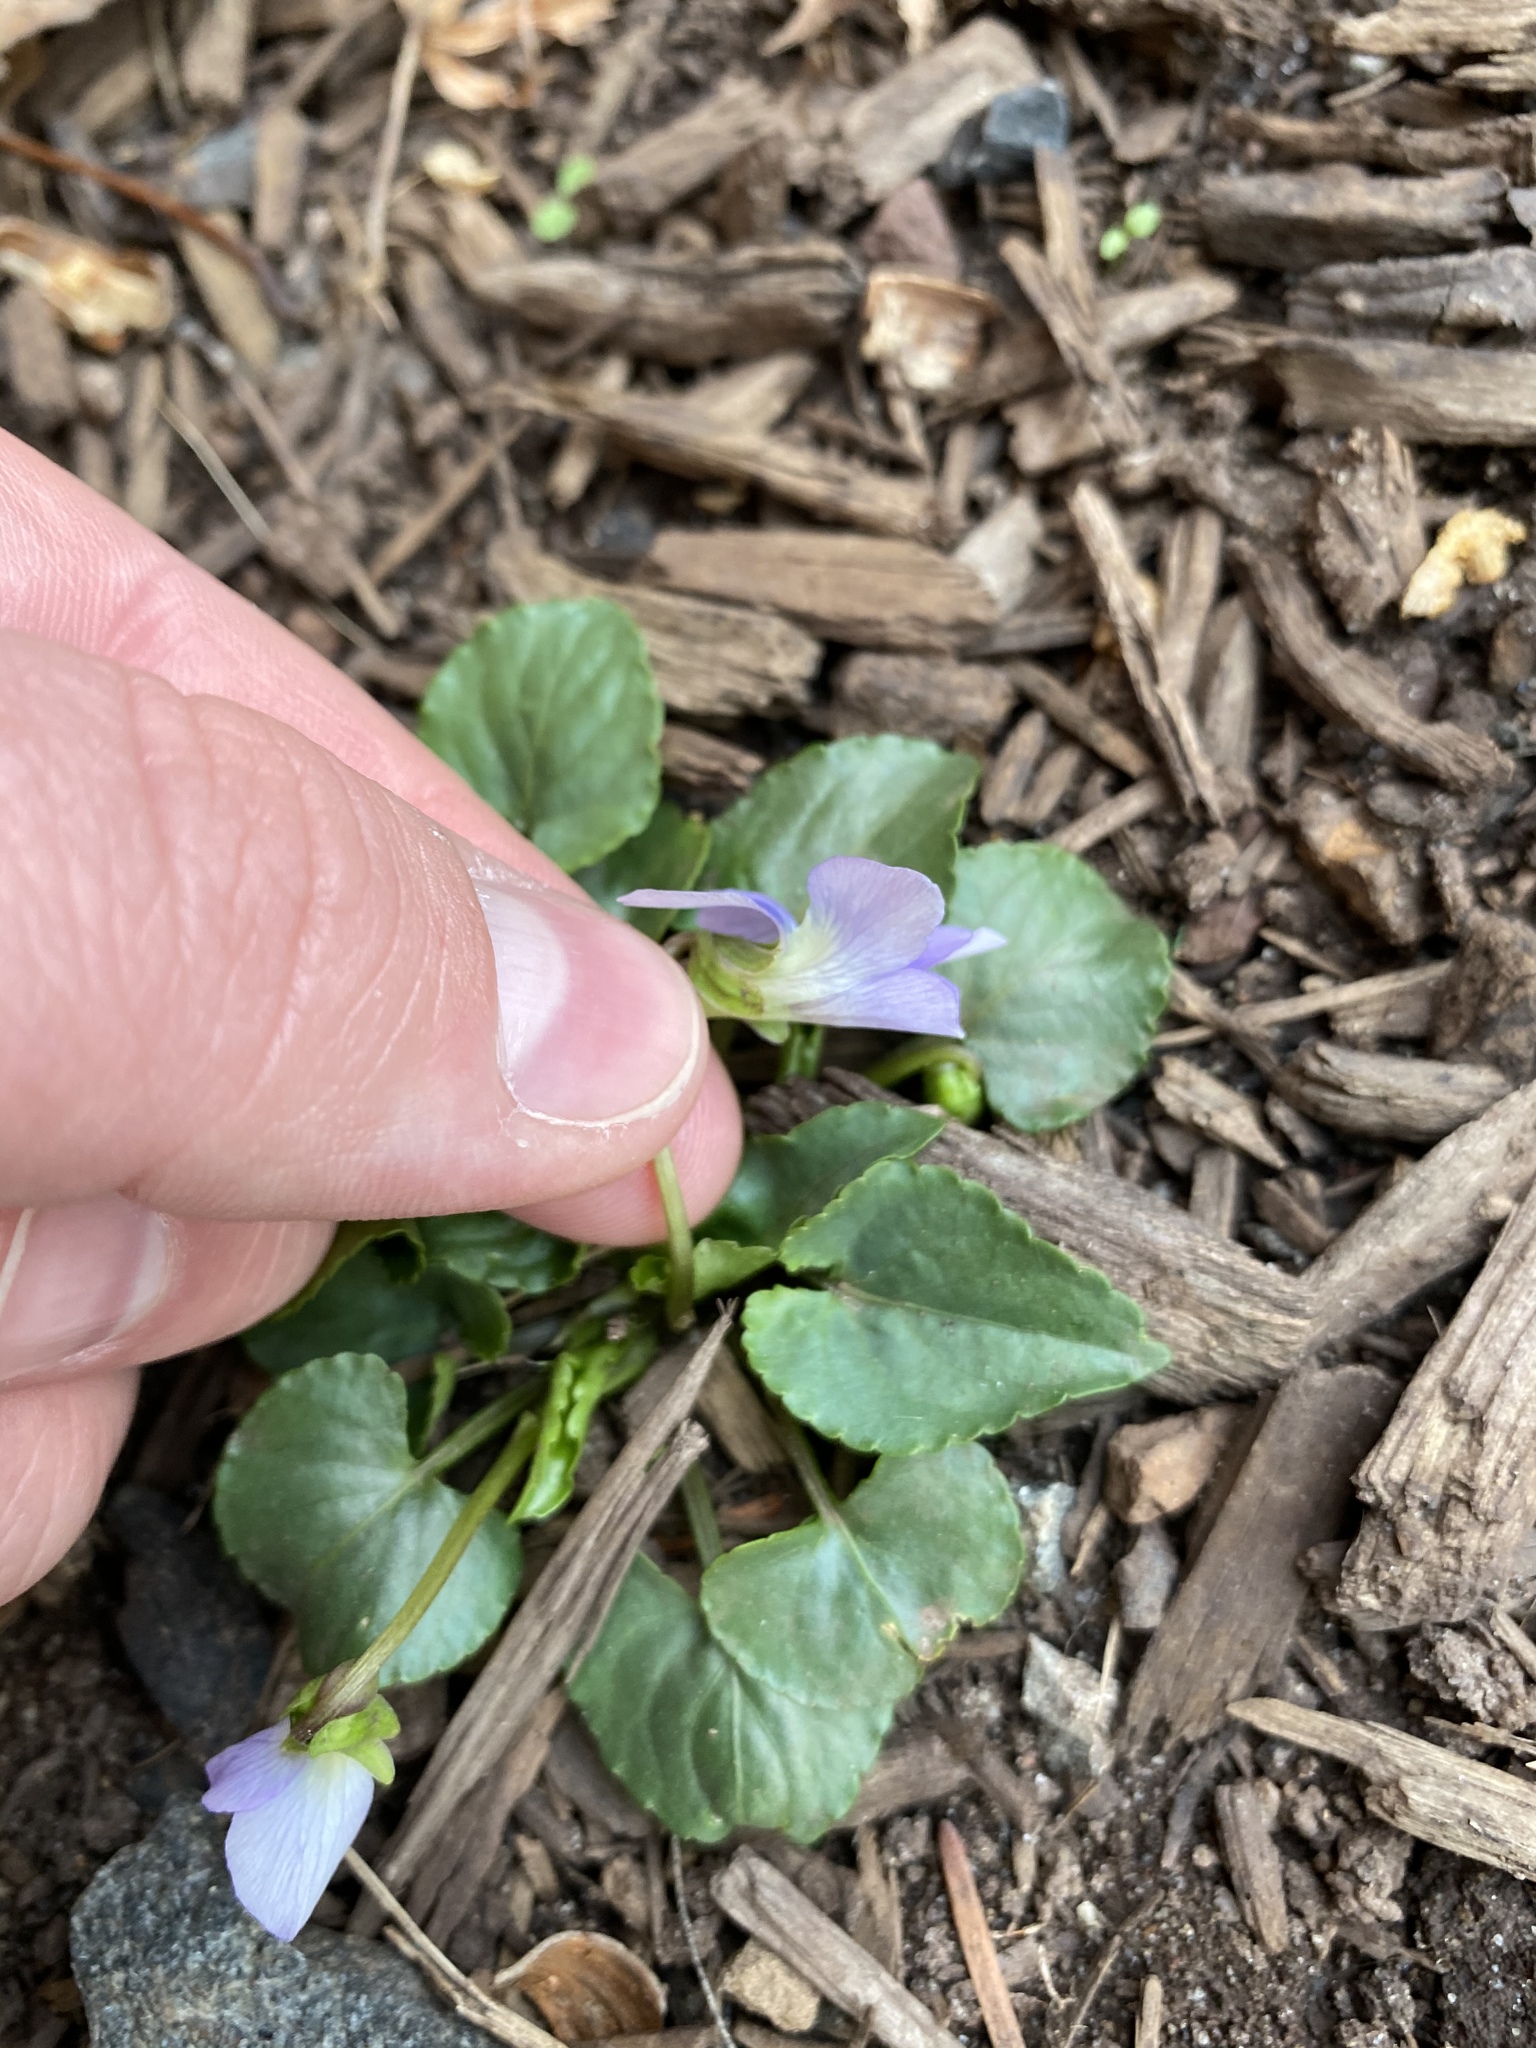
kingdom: Plantae
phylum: Tracheophyta
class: Magnoliopsida
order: Malpighiales
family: Violaceae
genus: Viola
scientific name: Viola sororia
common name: Dooryard violet
